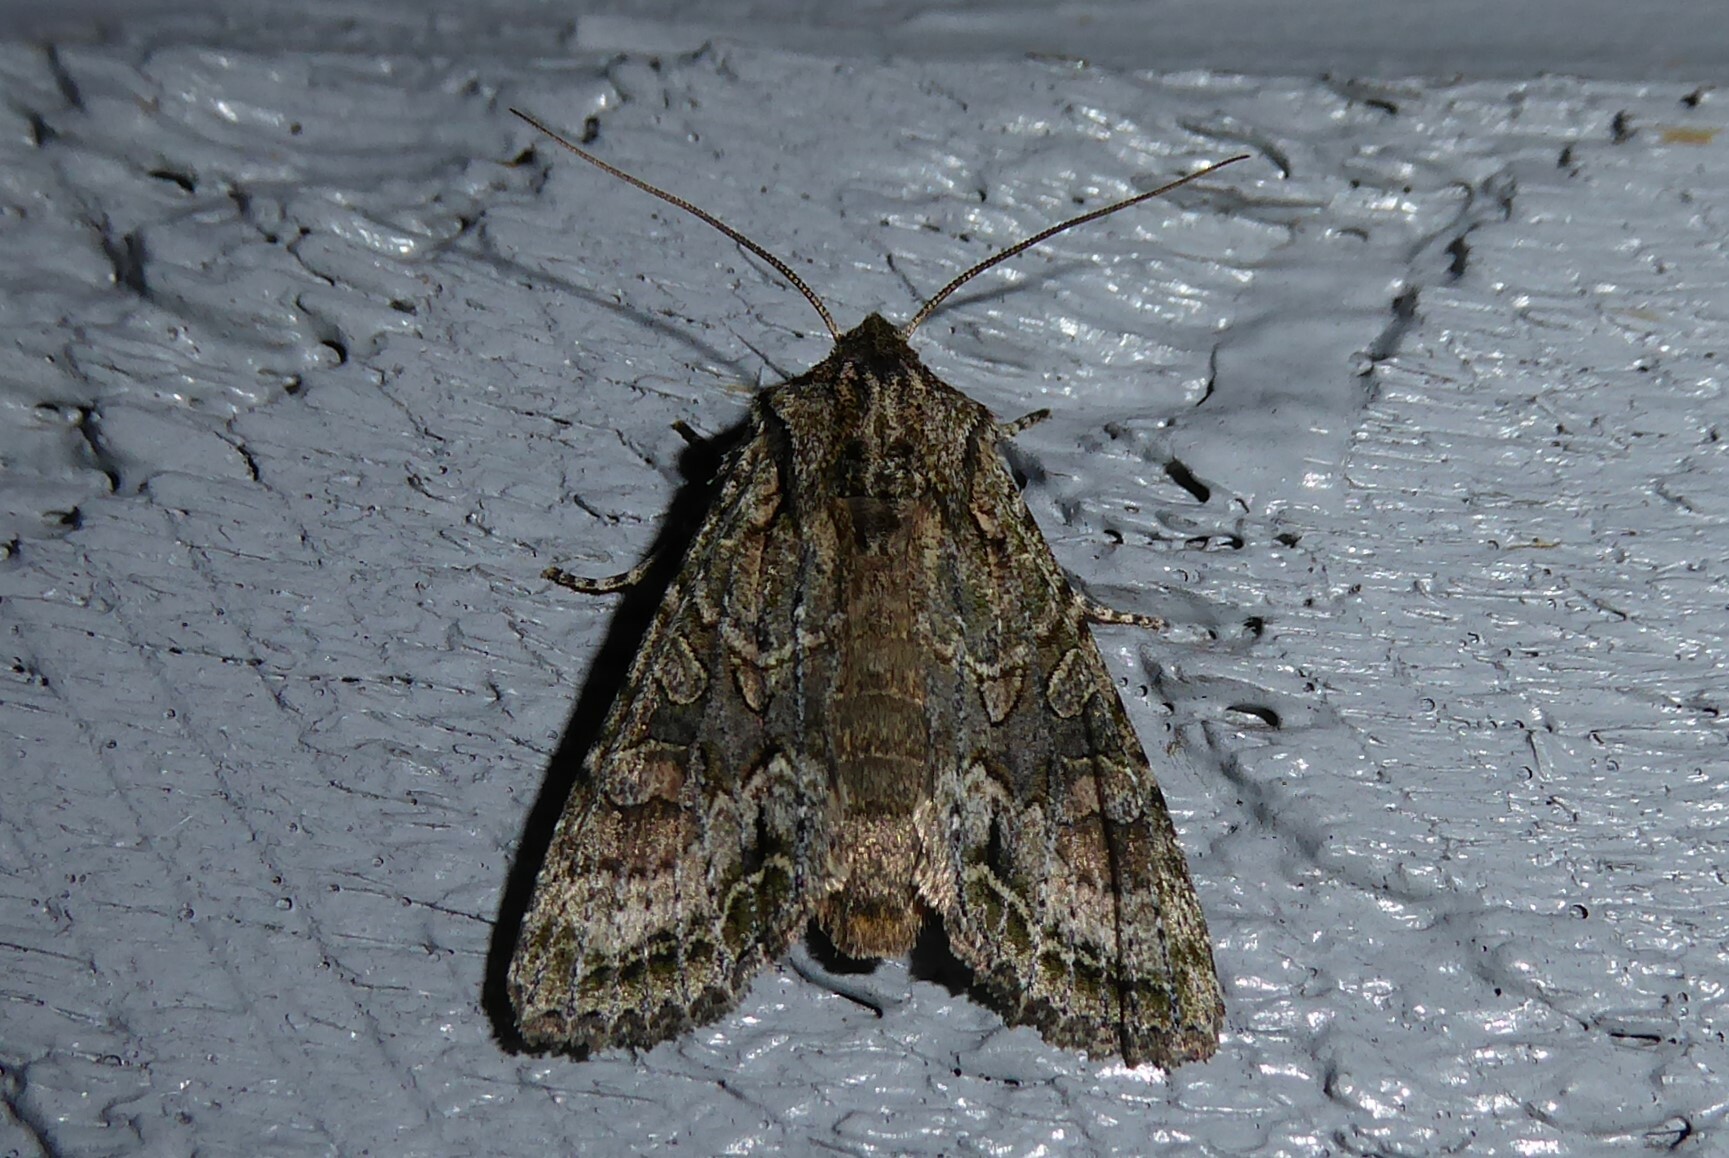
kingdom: Animalia
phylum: Arthropoda
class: Insecta
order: Lepidoptera
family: Noctuidae
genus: Ichneutica
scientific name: Ichneutica mutans
